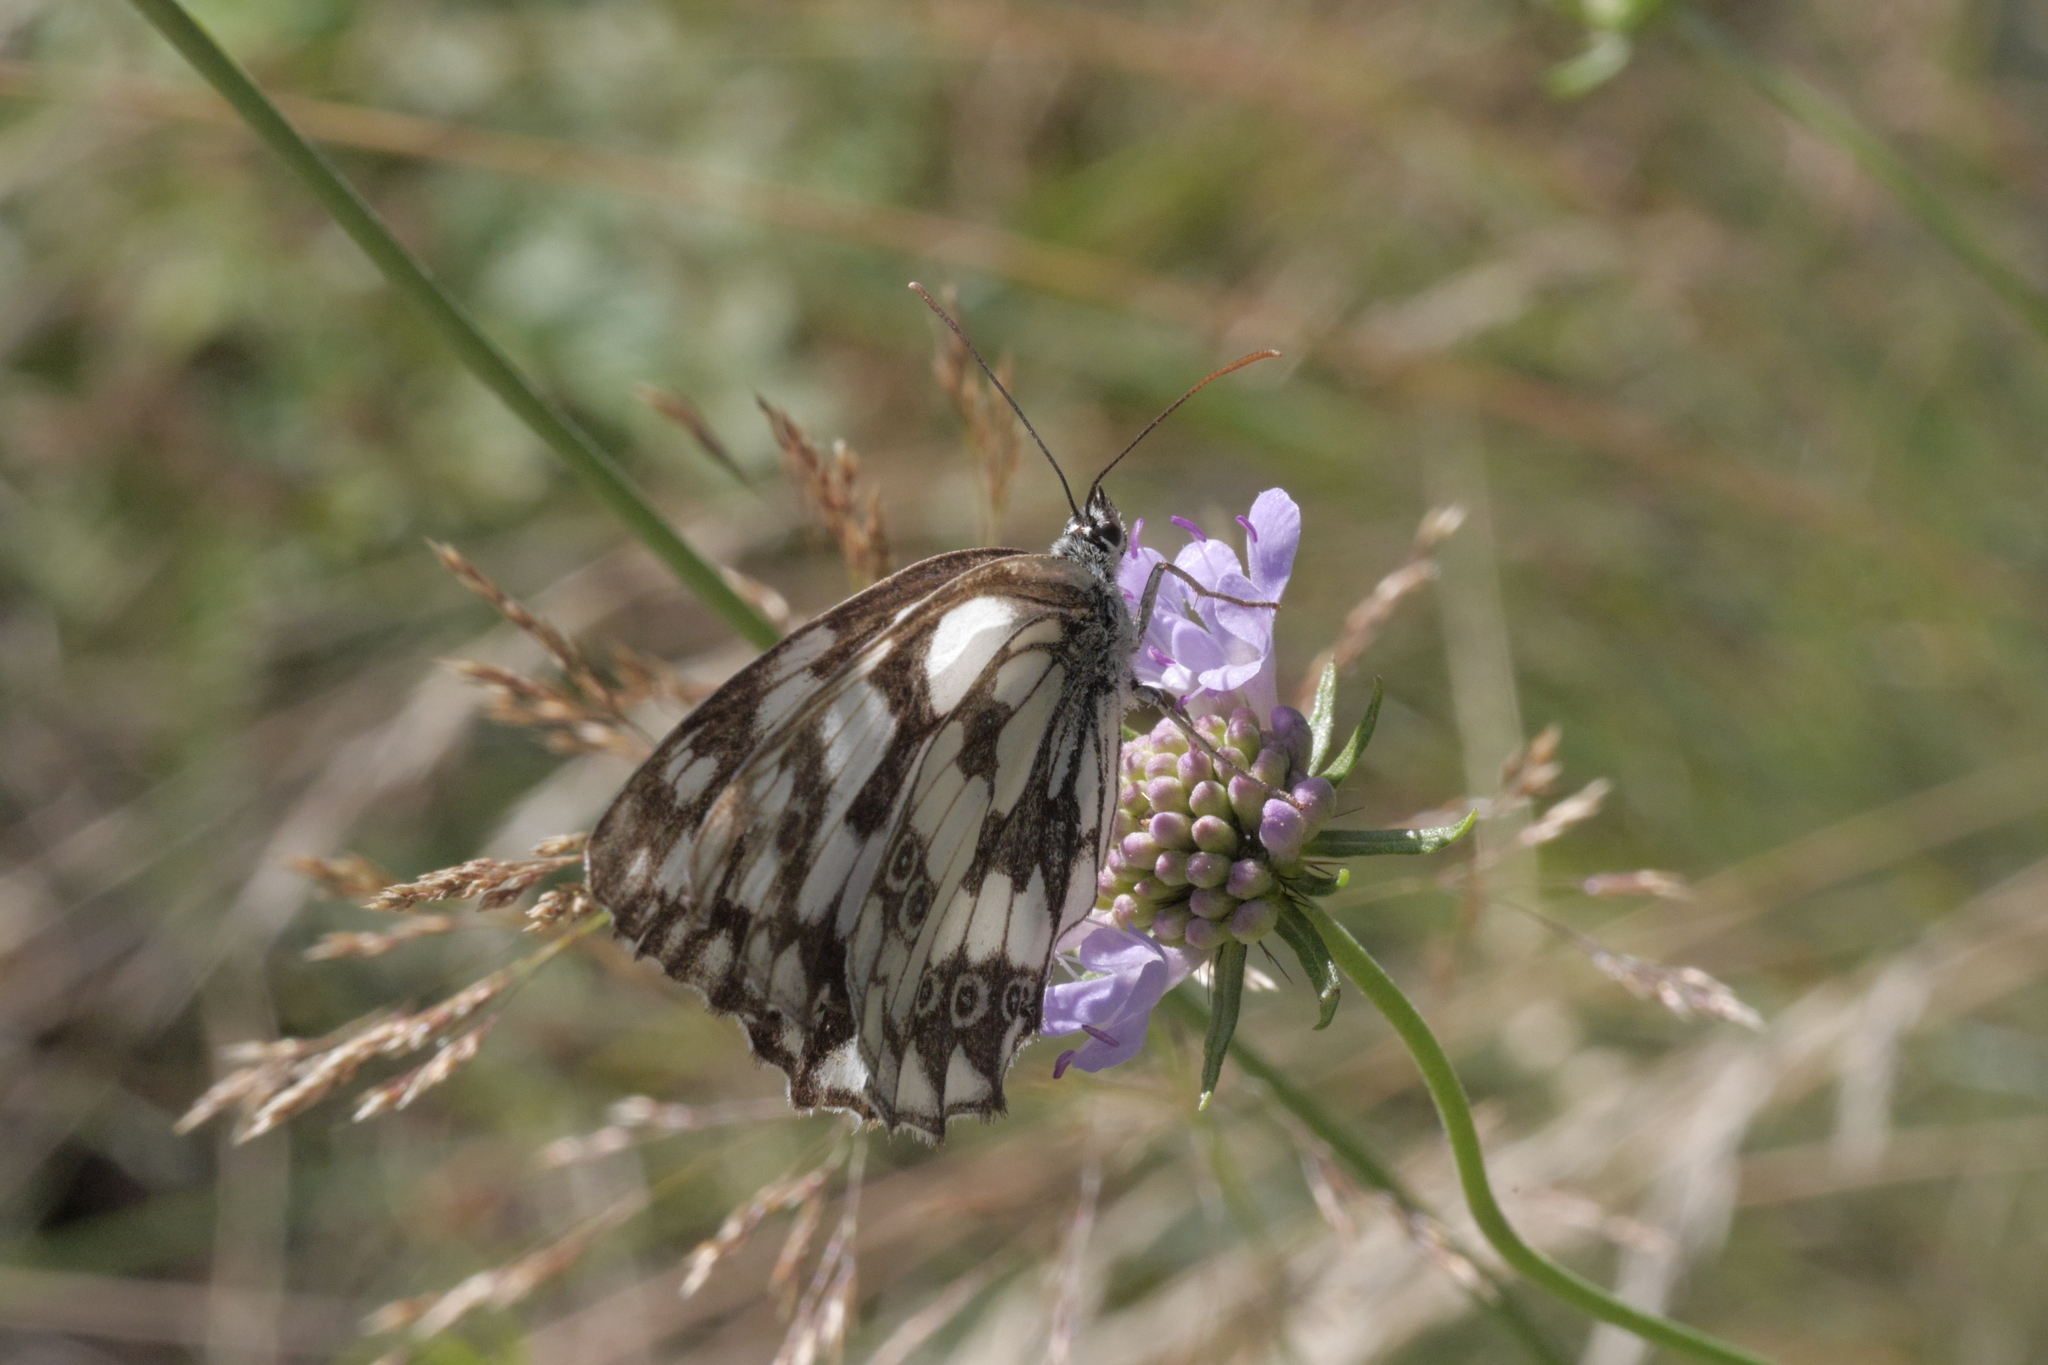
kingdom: Animalia
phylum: Arthropoda
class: Insecta
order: Lepidoptera
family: Nymphalidae
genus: Melanargia
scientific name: Melanargia galathea
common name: Marbled white
